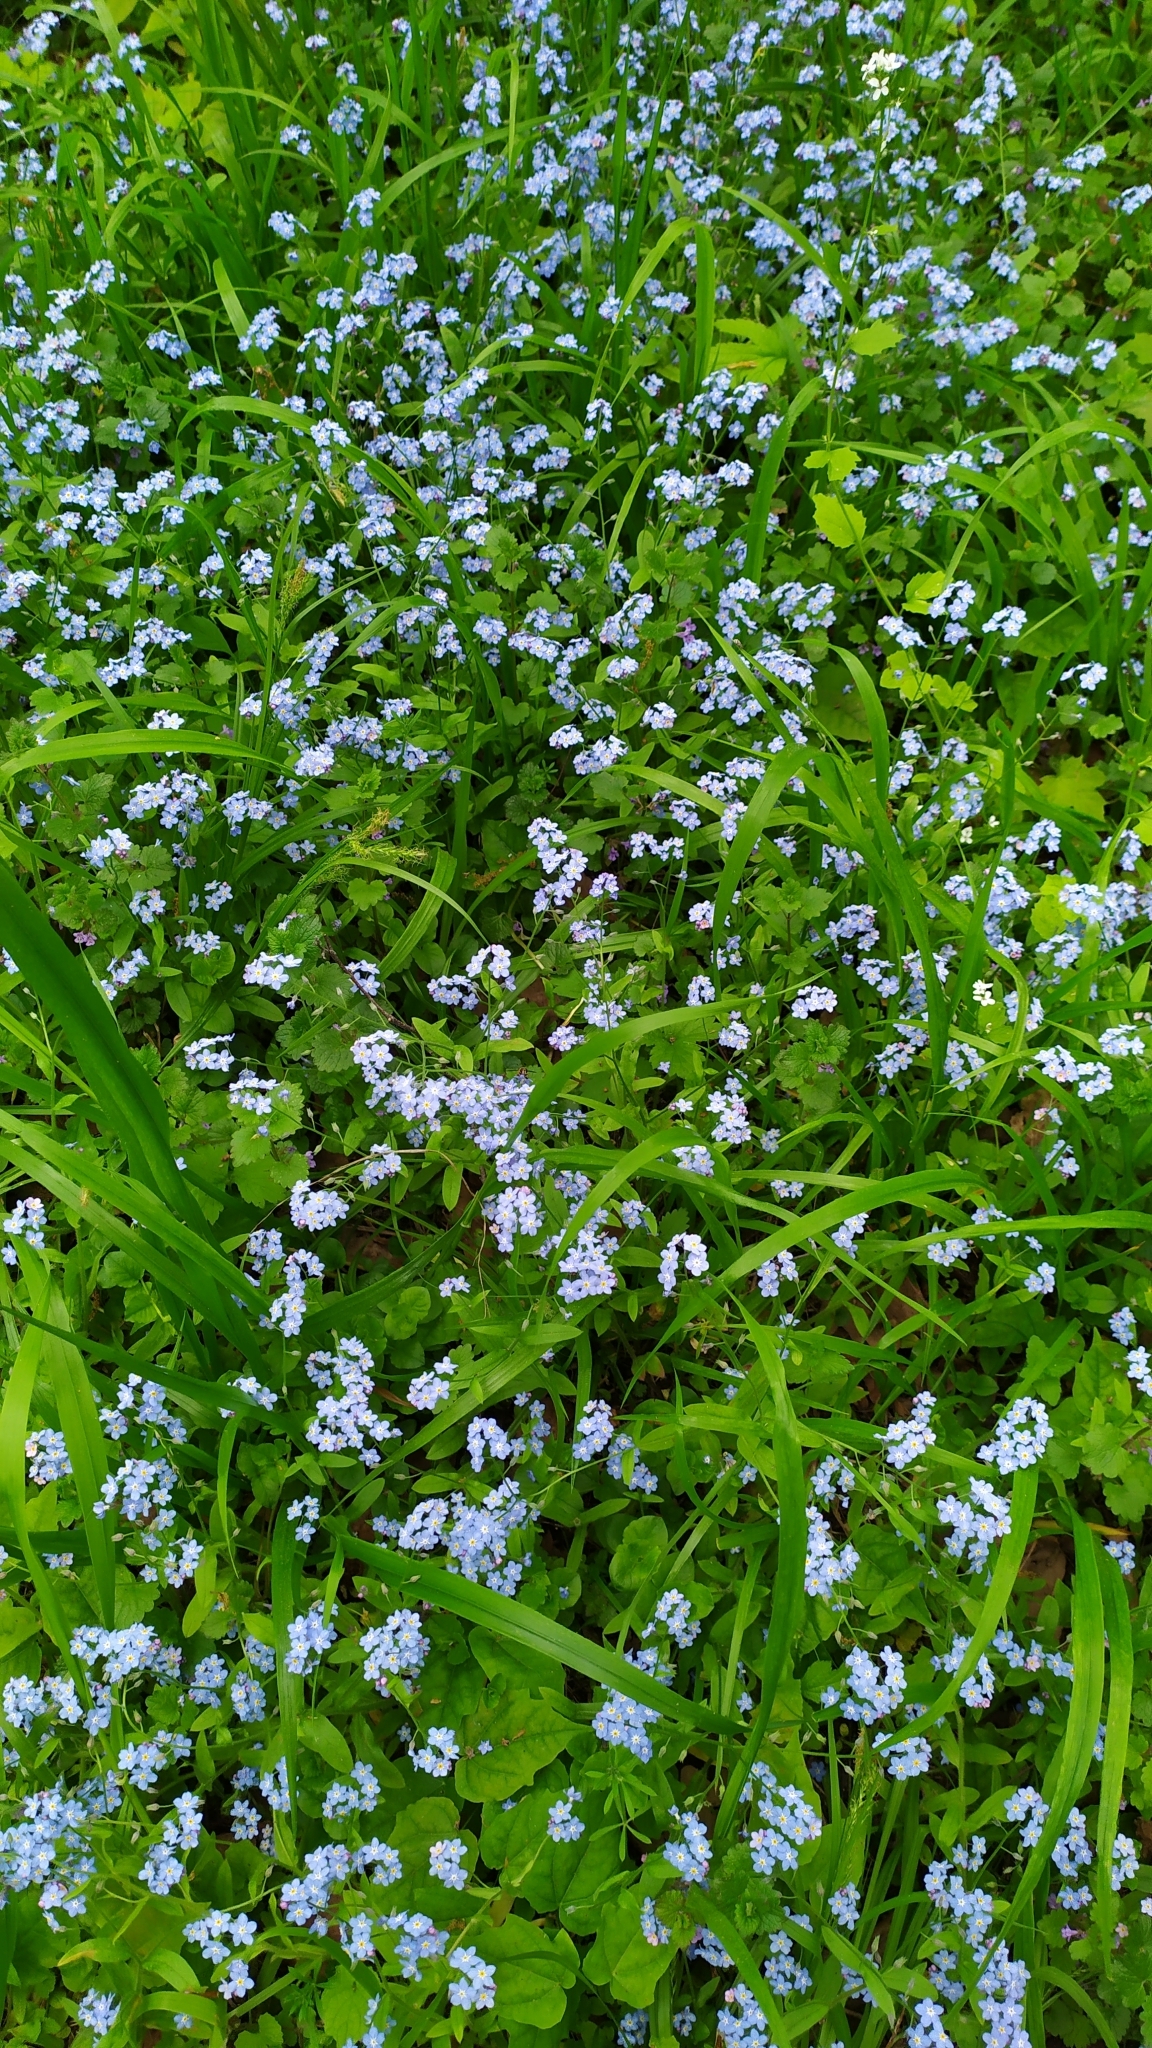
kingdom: Plantae
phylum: Tracheophyta
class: Magnoliopsida
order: Boraginales
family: Boraginaceae
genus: Myosotis
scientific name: Myosotis sylvatica
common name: Wood forget-me-not
